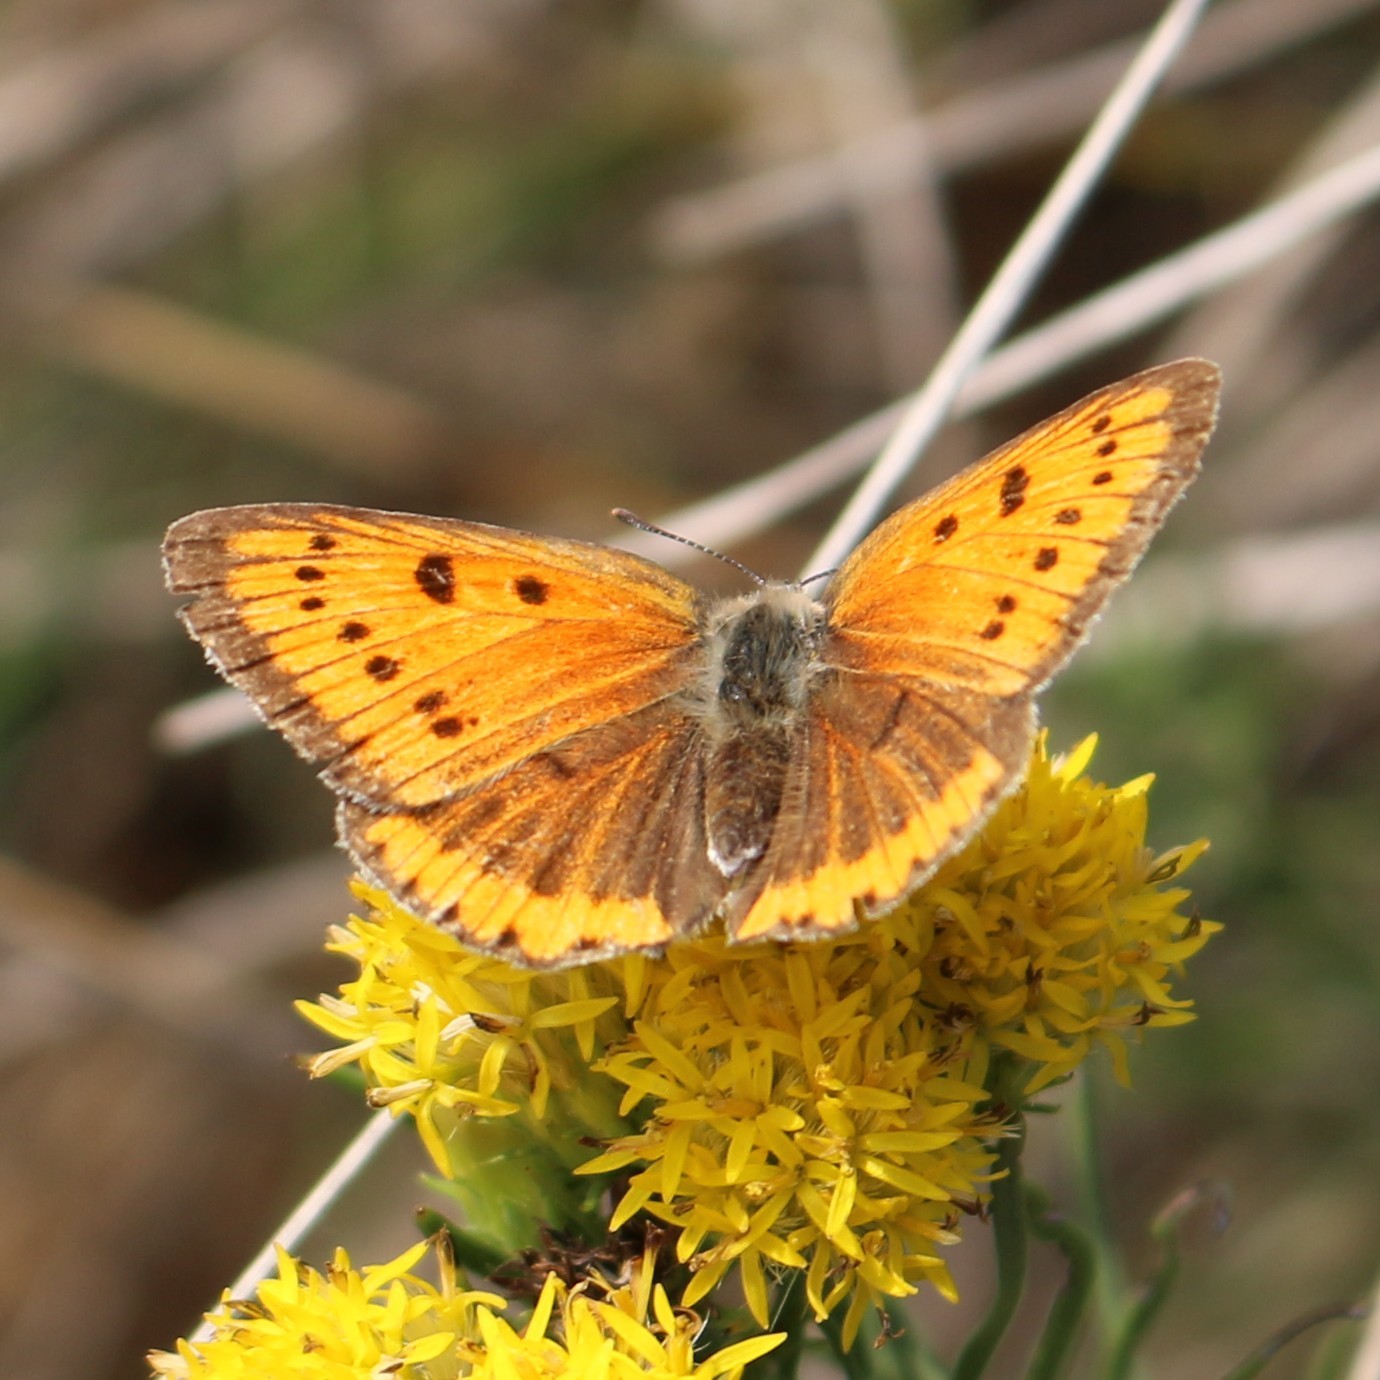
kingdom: Animalia
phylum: Arthropoda
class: Insecta
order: Lepidoptera
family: Lycaenidae
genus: Lycaena
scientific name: Lycaena dispar
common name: Large copper
